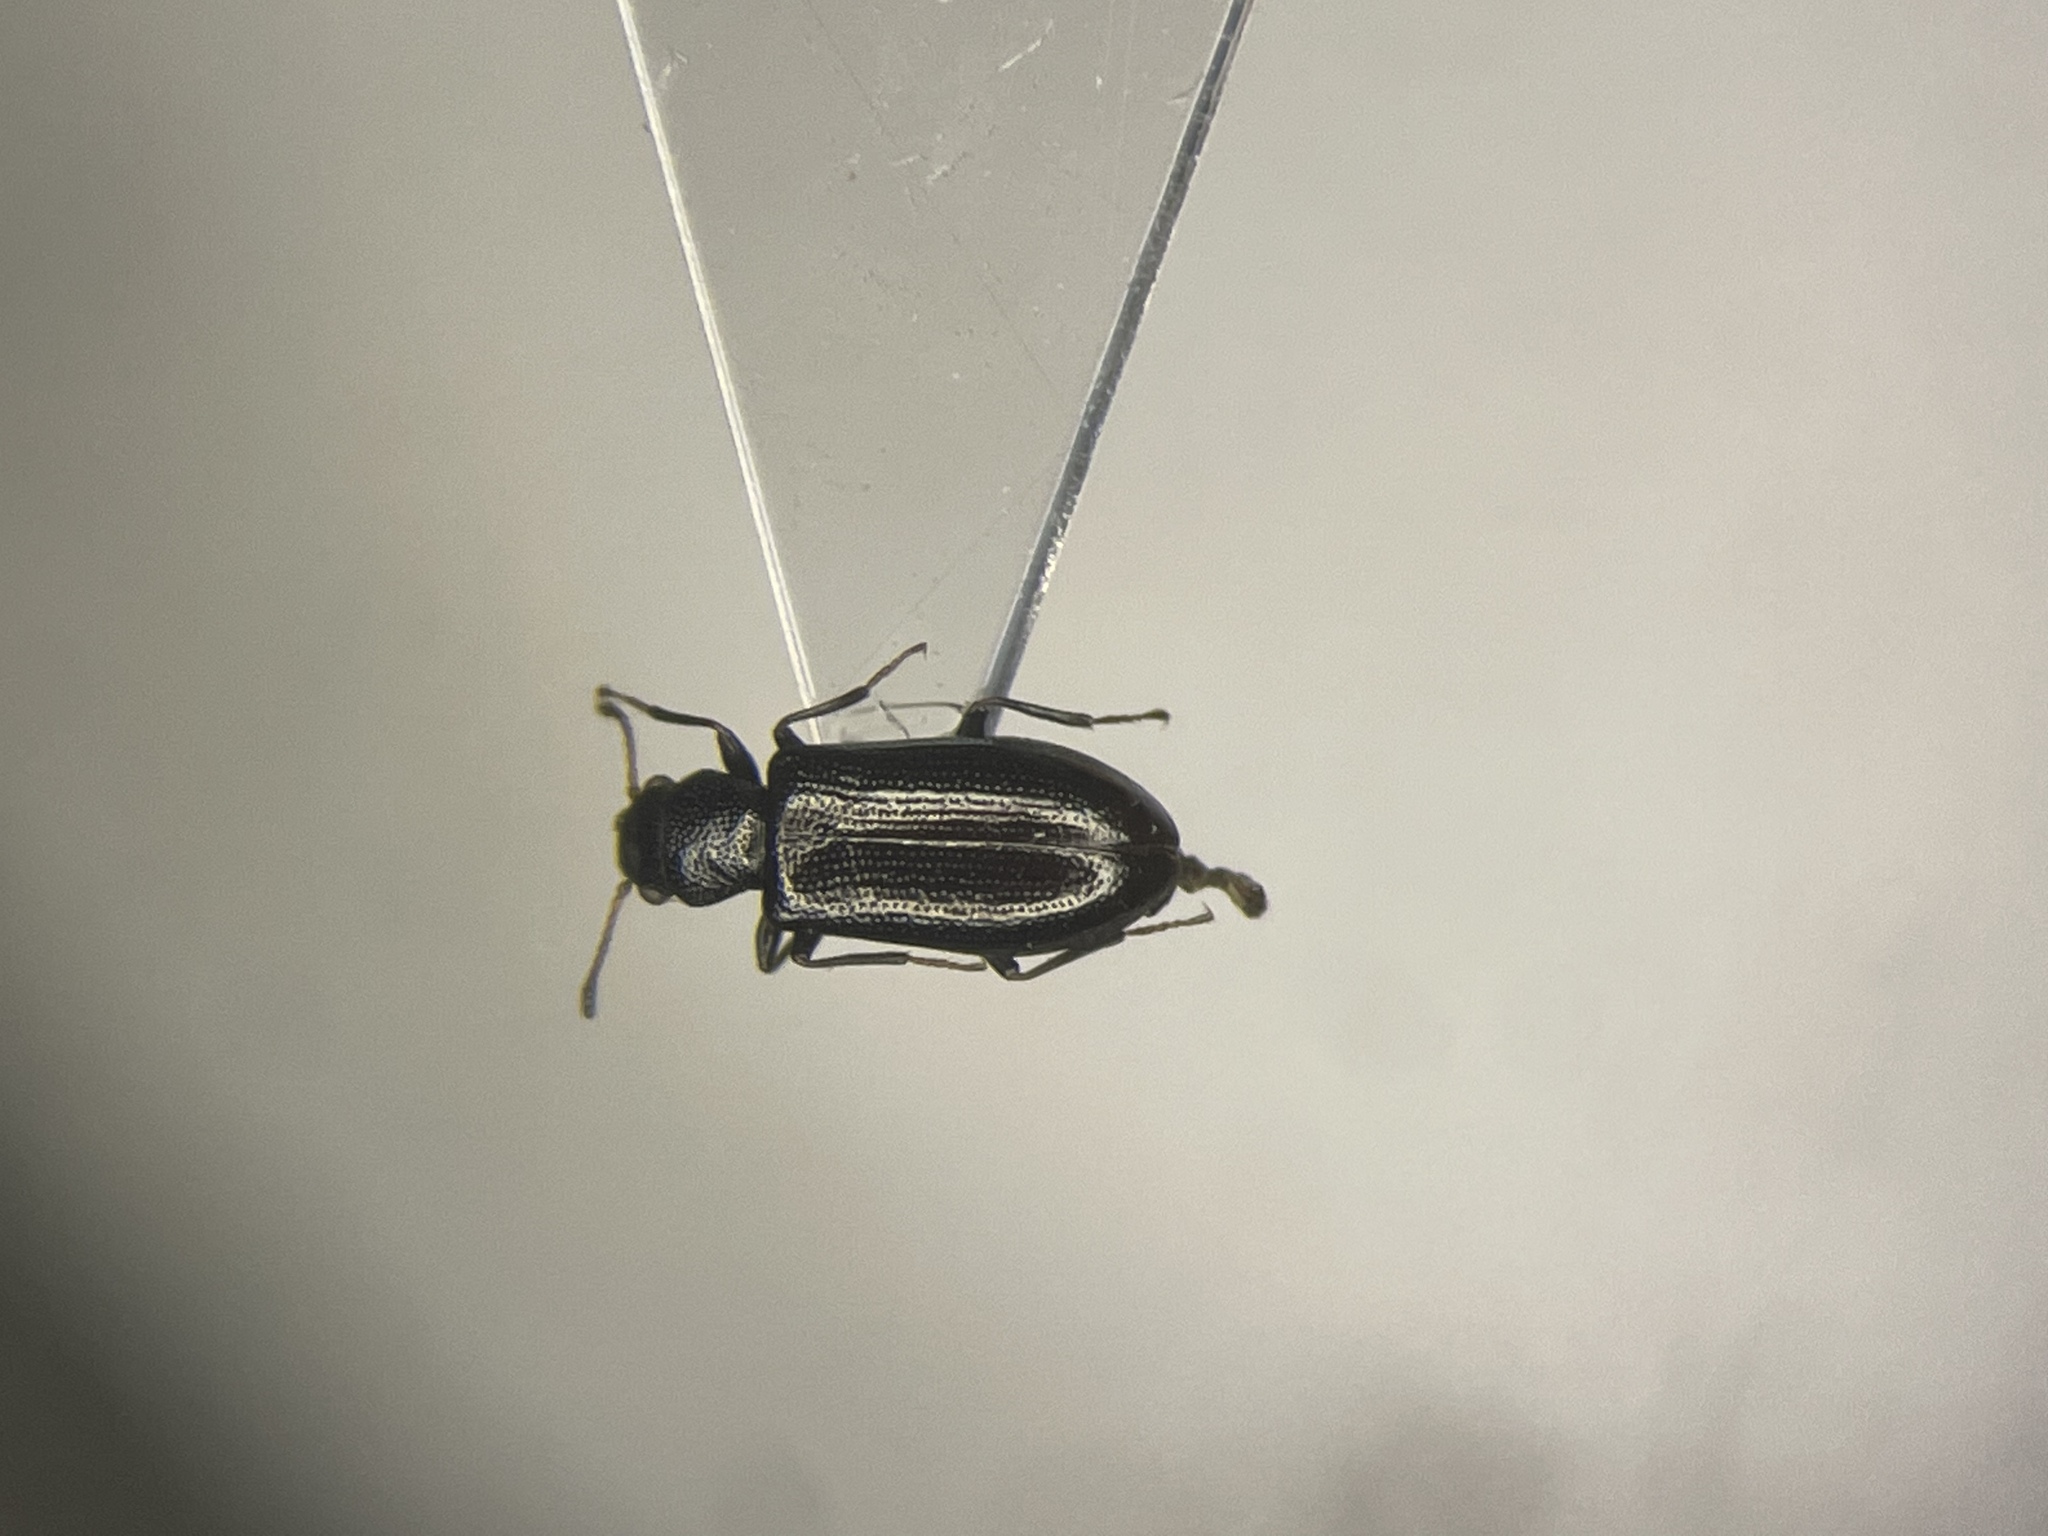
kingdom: Animalia
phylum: Arthropoda
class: Insecta
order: Coleoptera
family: Salpingidae
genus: Sphaeriestes
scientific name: Sphaeriestes virescens
